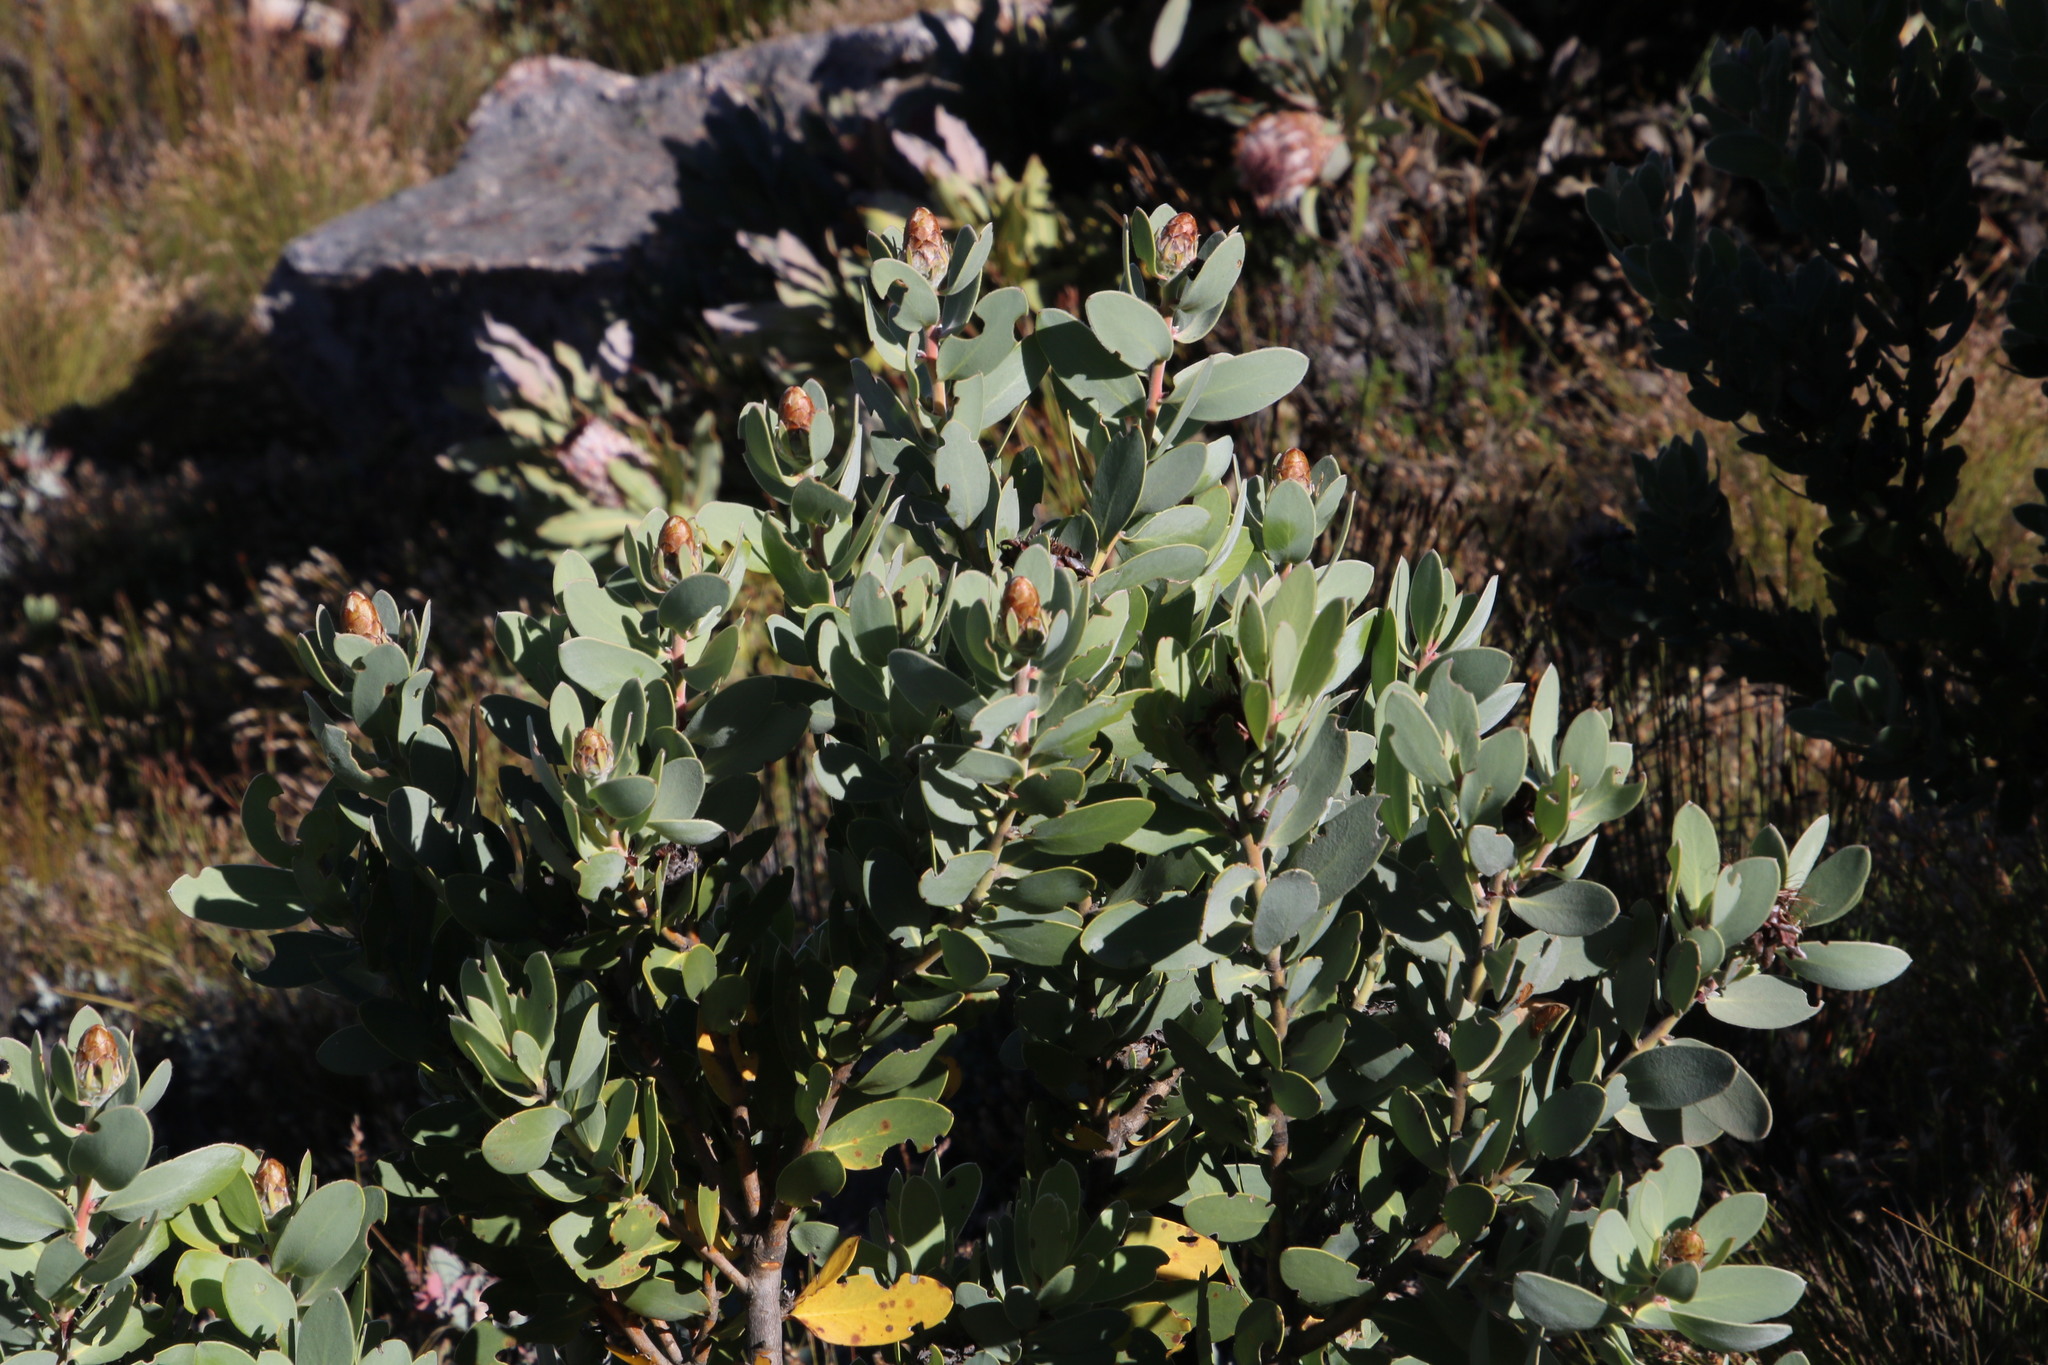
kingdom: Plantae
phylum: Tracheophyta
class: Magnoliopsida
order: Proteales
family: Proteaceae
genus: Protea
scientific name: Protea punctata
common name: Water sugarbush
